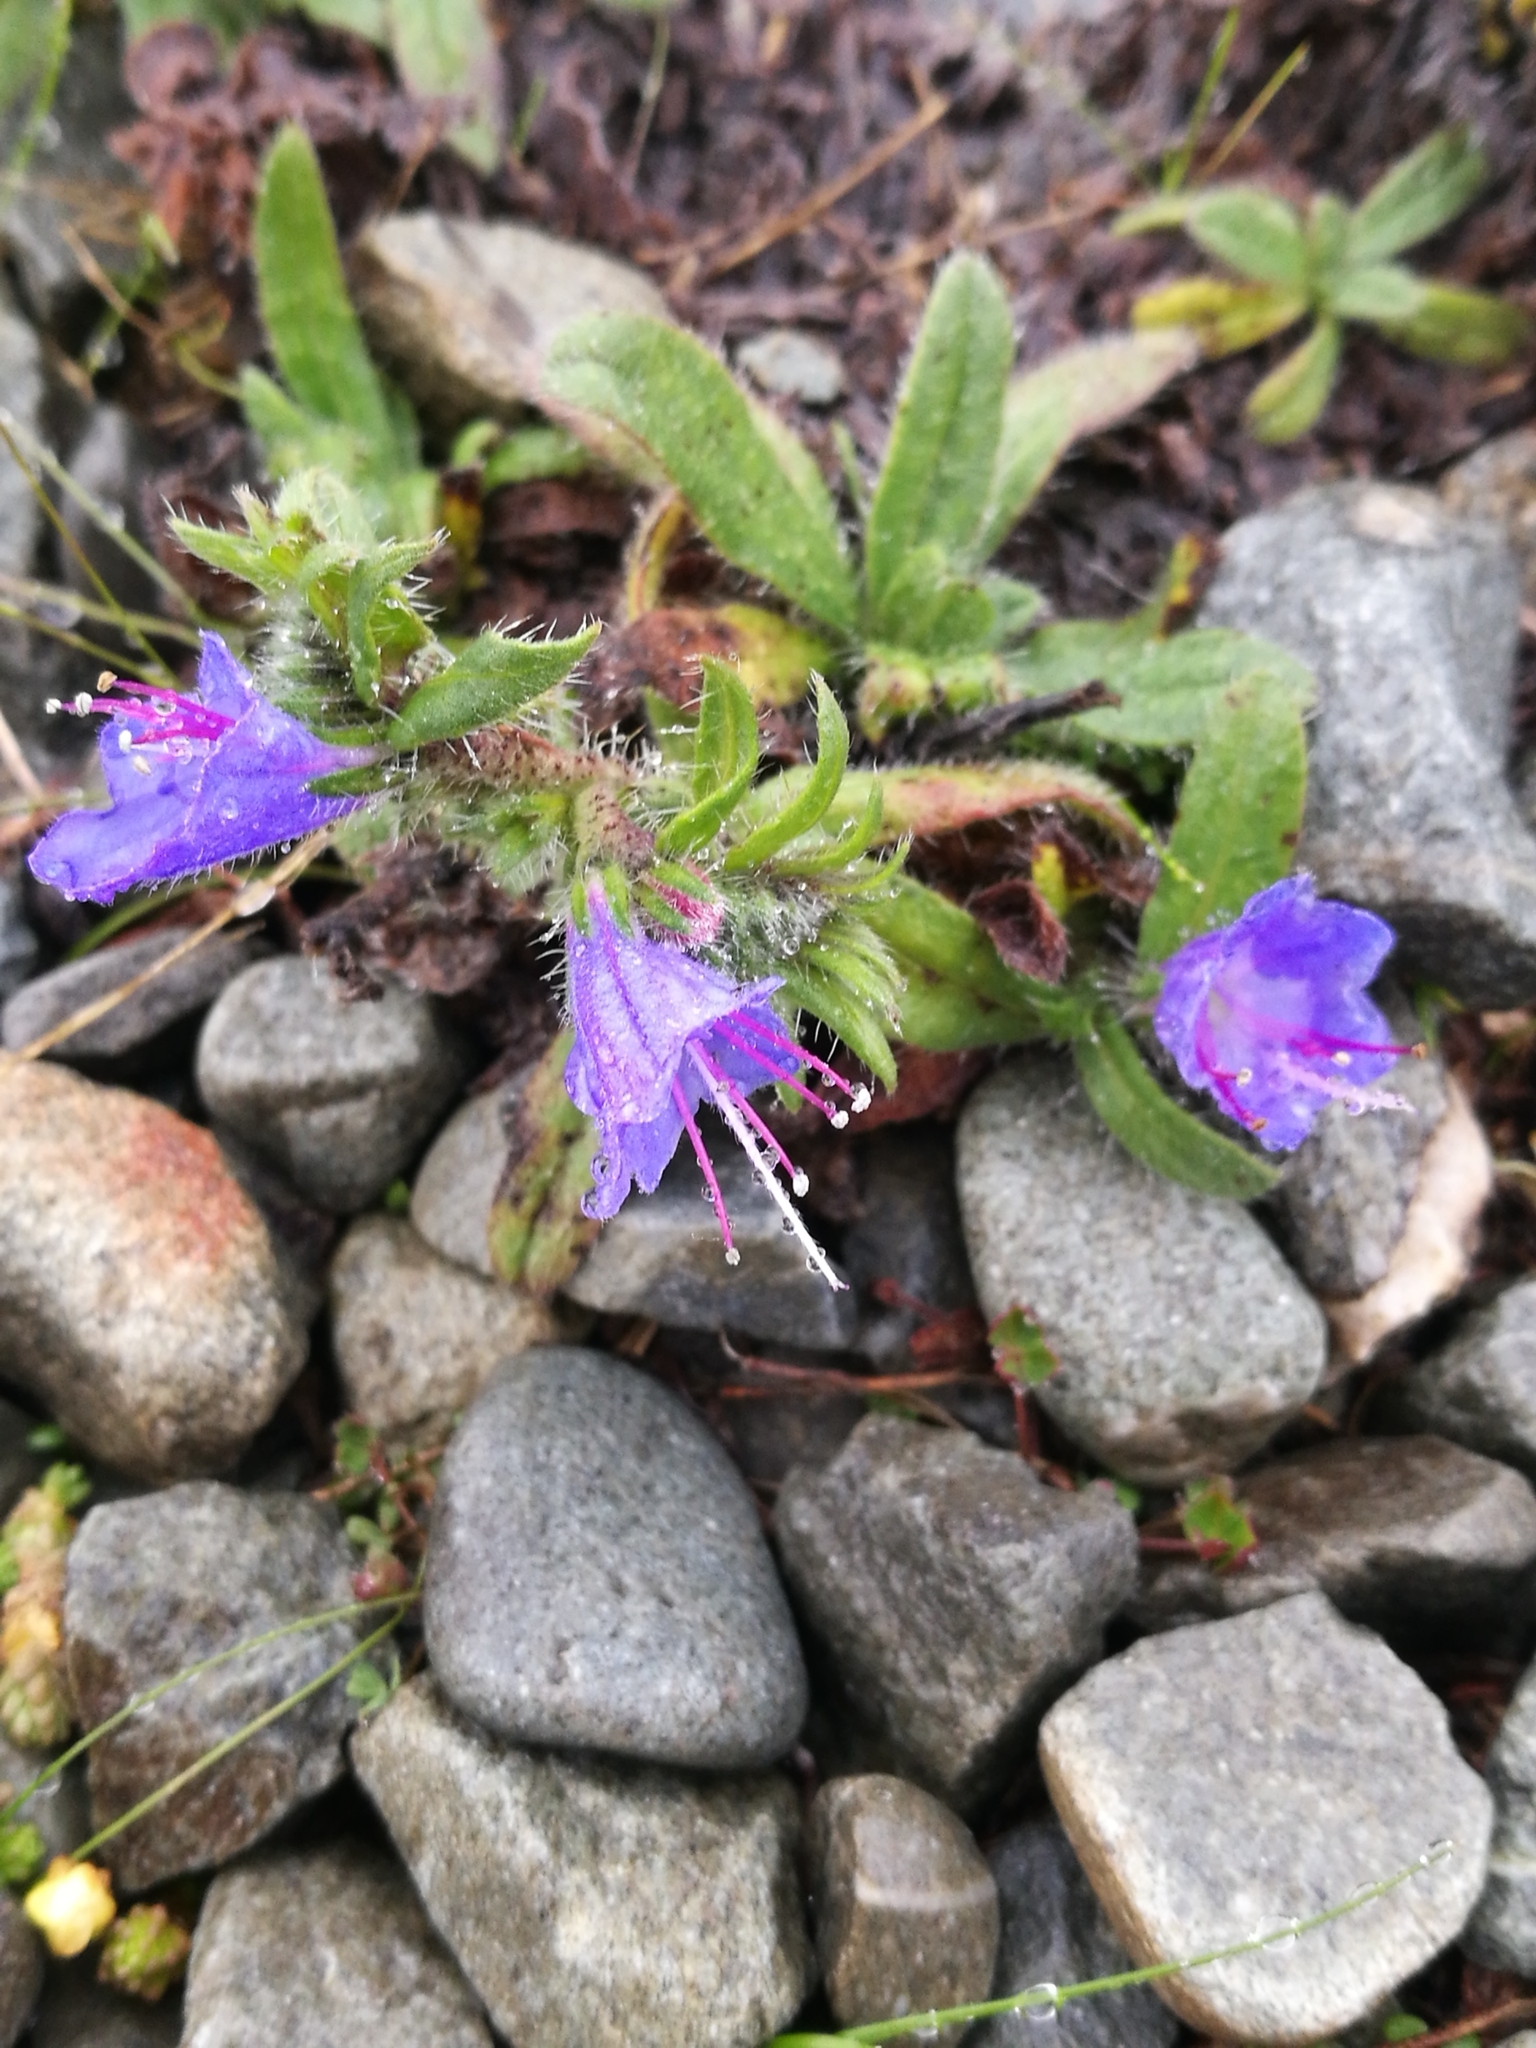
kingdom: Plantae
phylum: Tracheophyta
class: Magnoliopsida
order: Boraginales
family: Boraginaceae
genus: Echium
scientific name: Echium vulgare
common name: Common viper's bugloss
